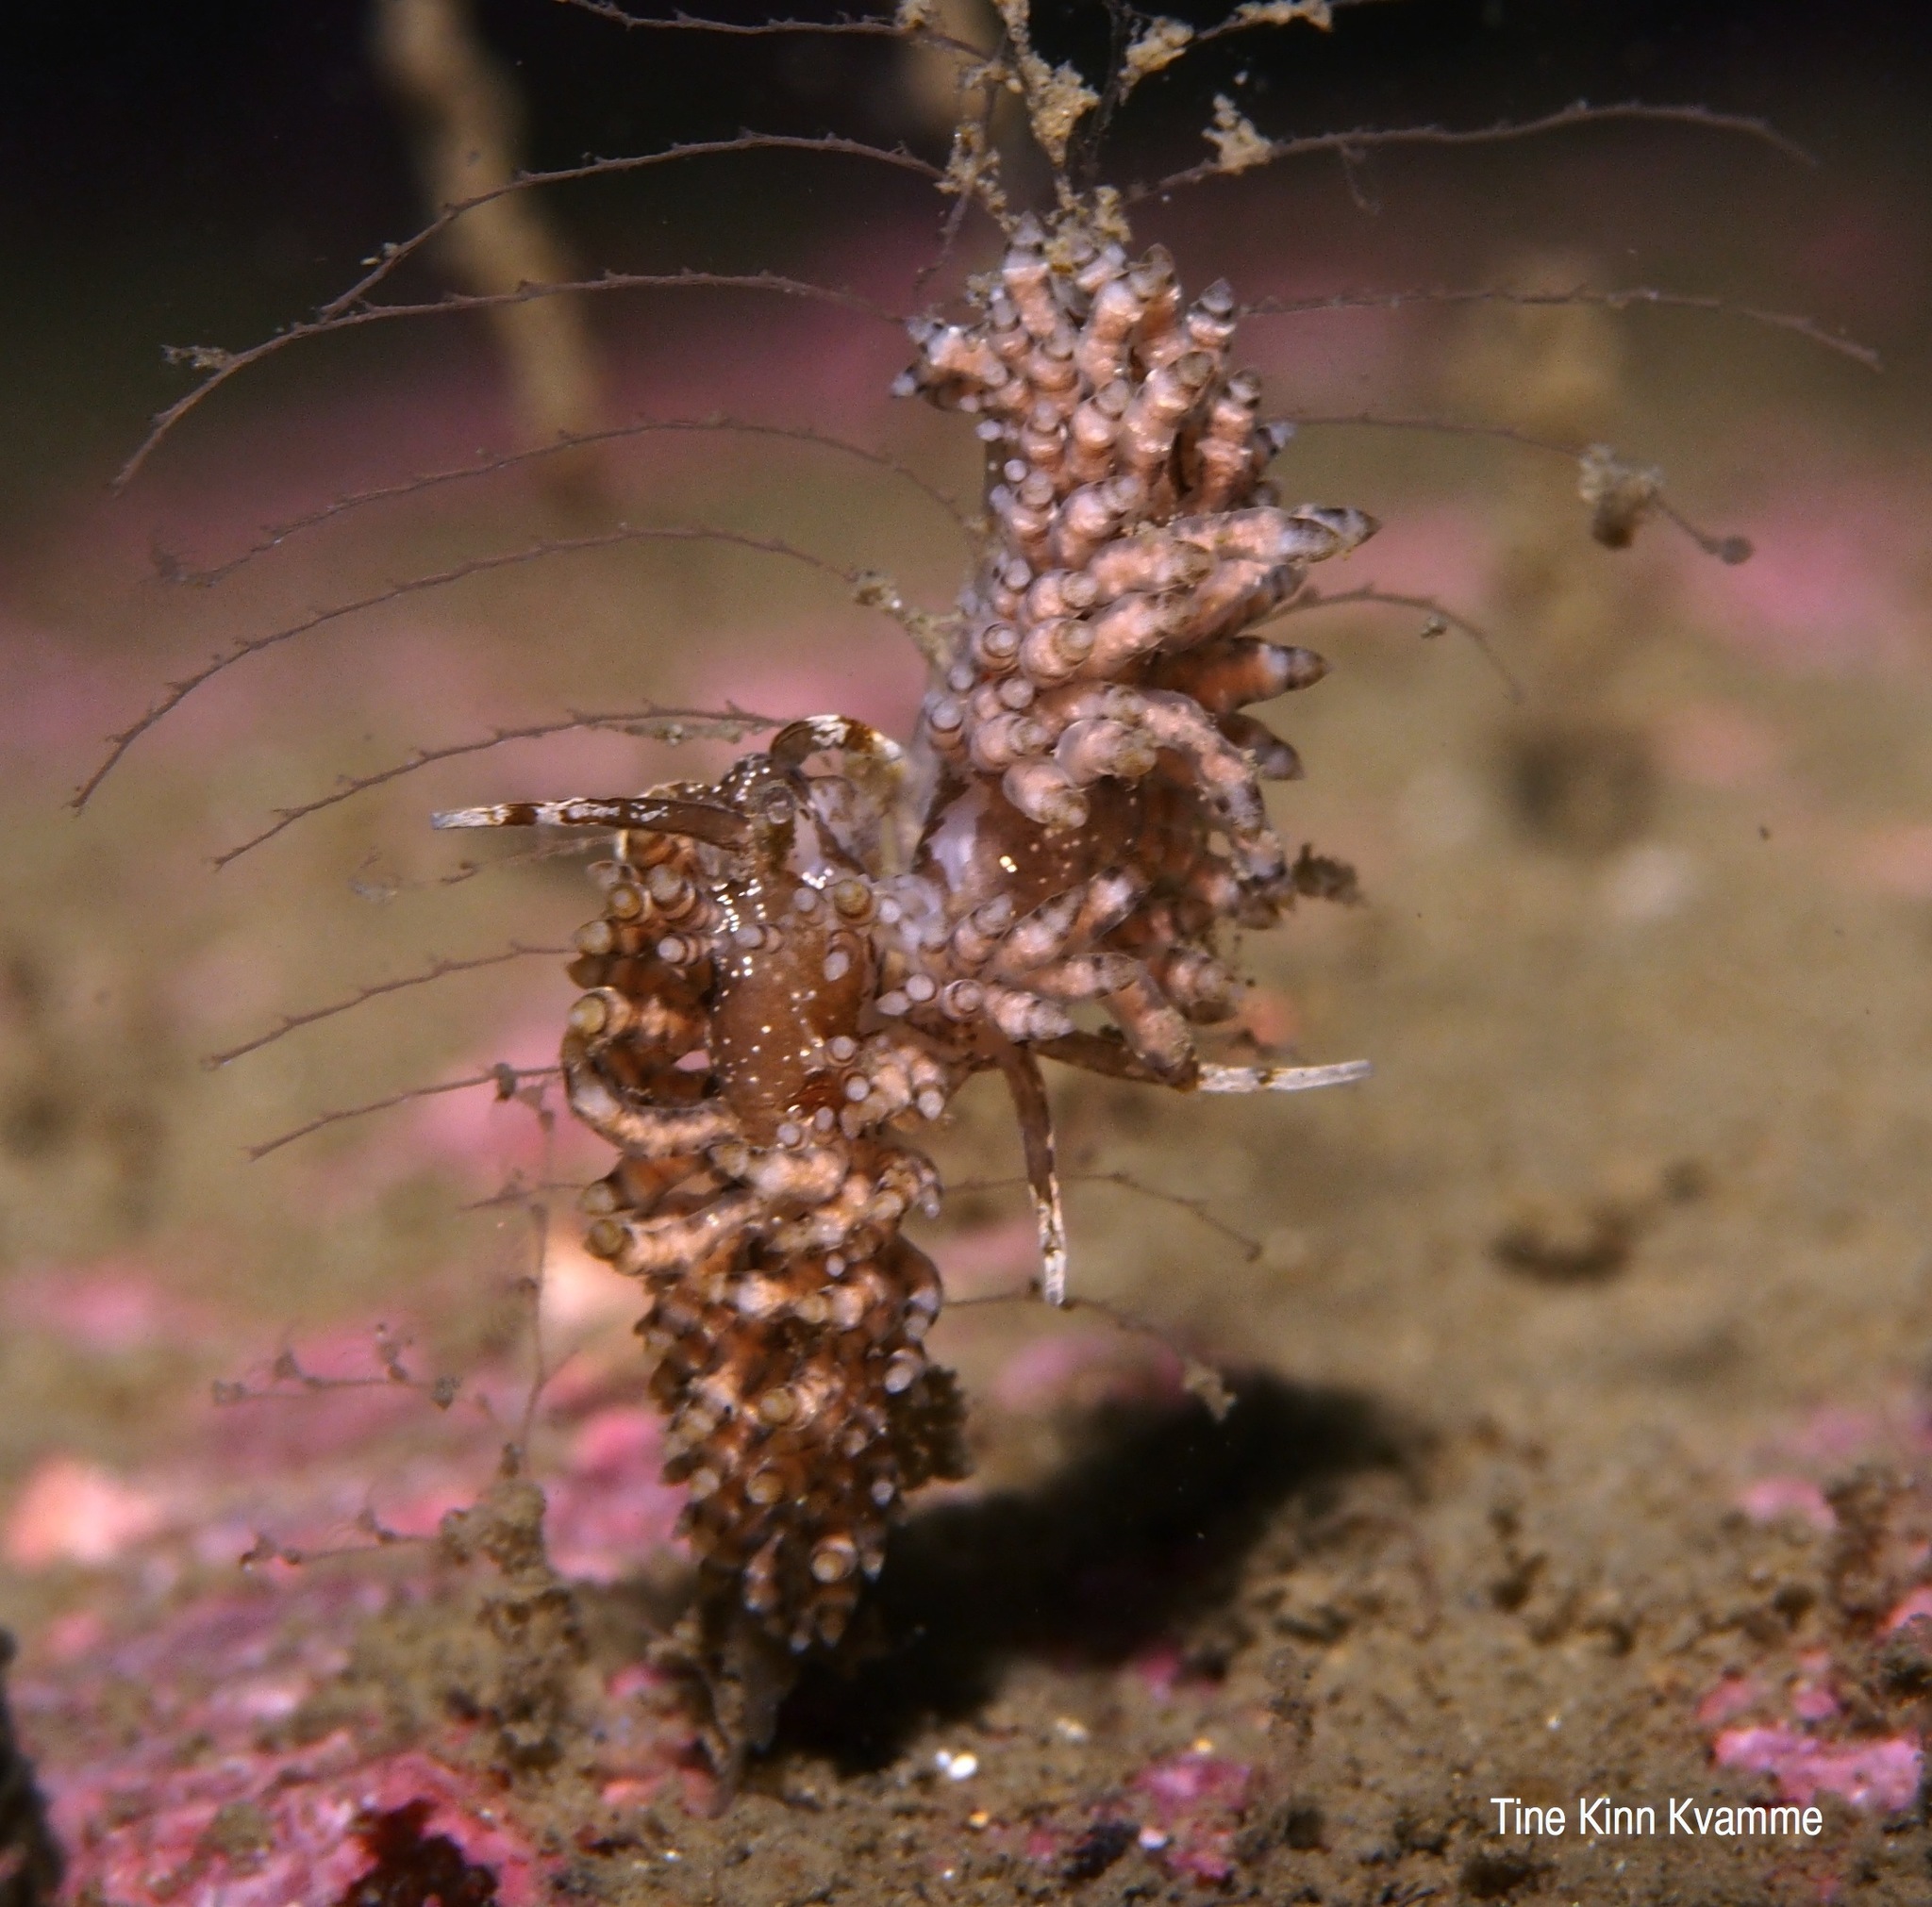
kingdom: Animalia
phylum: Mollusca
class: Gastropoda
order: Nudibranchia
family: Eubranchidae
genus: Eubranchus
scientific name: Eubranchus vittatus
